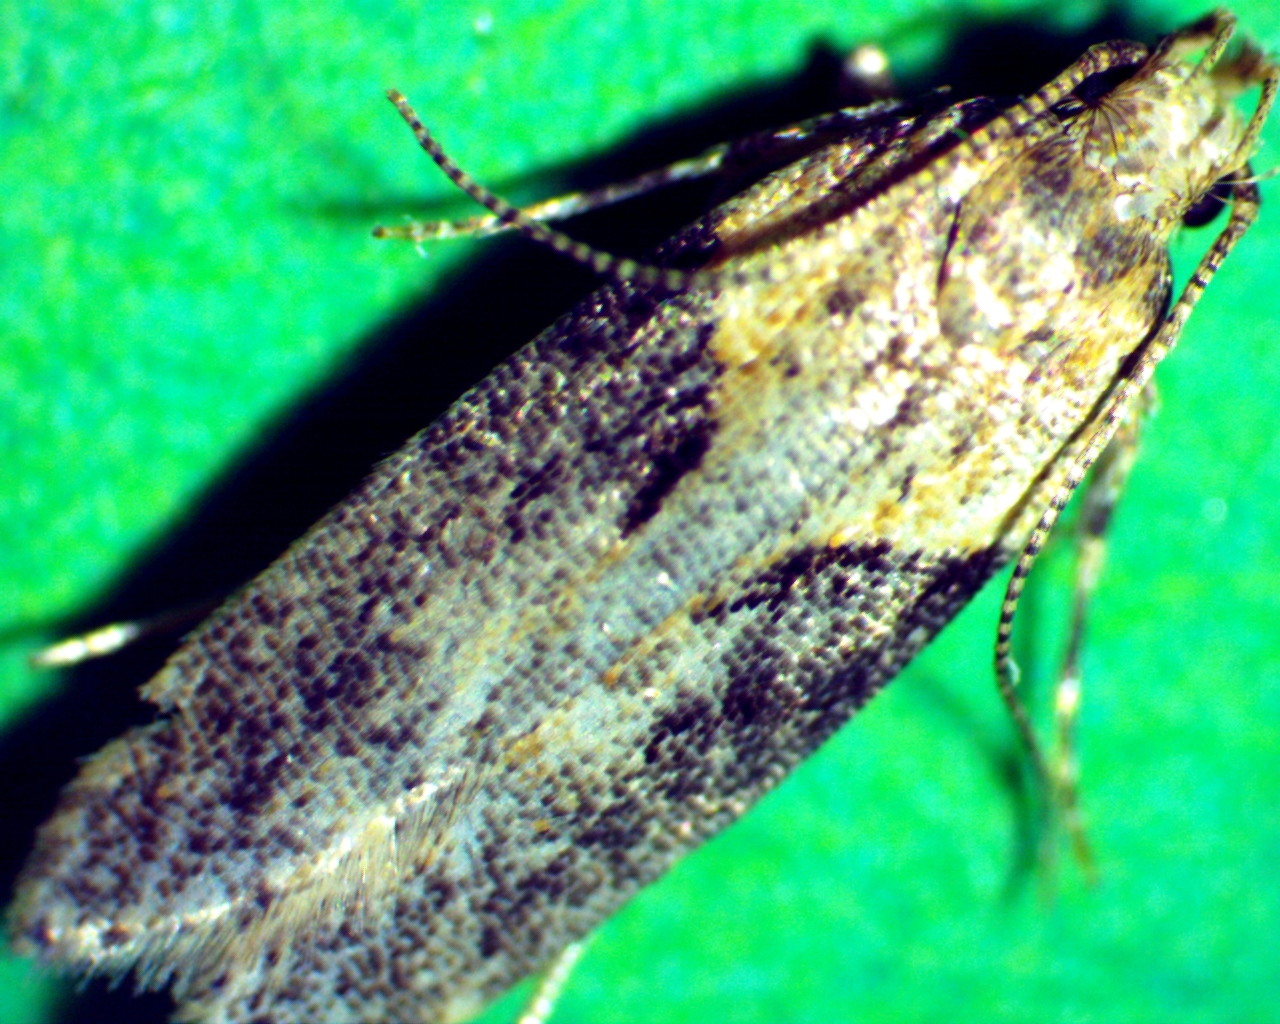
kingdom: Animalia
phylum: Arthropoda
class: Insecta
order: Lepidoptera
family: Gelechiidae
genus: Chionodes
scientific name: Chionodes mediofuscella
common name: Black-smudged chionodes moth
